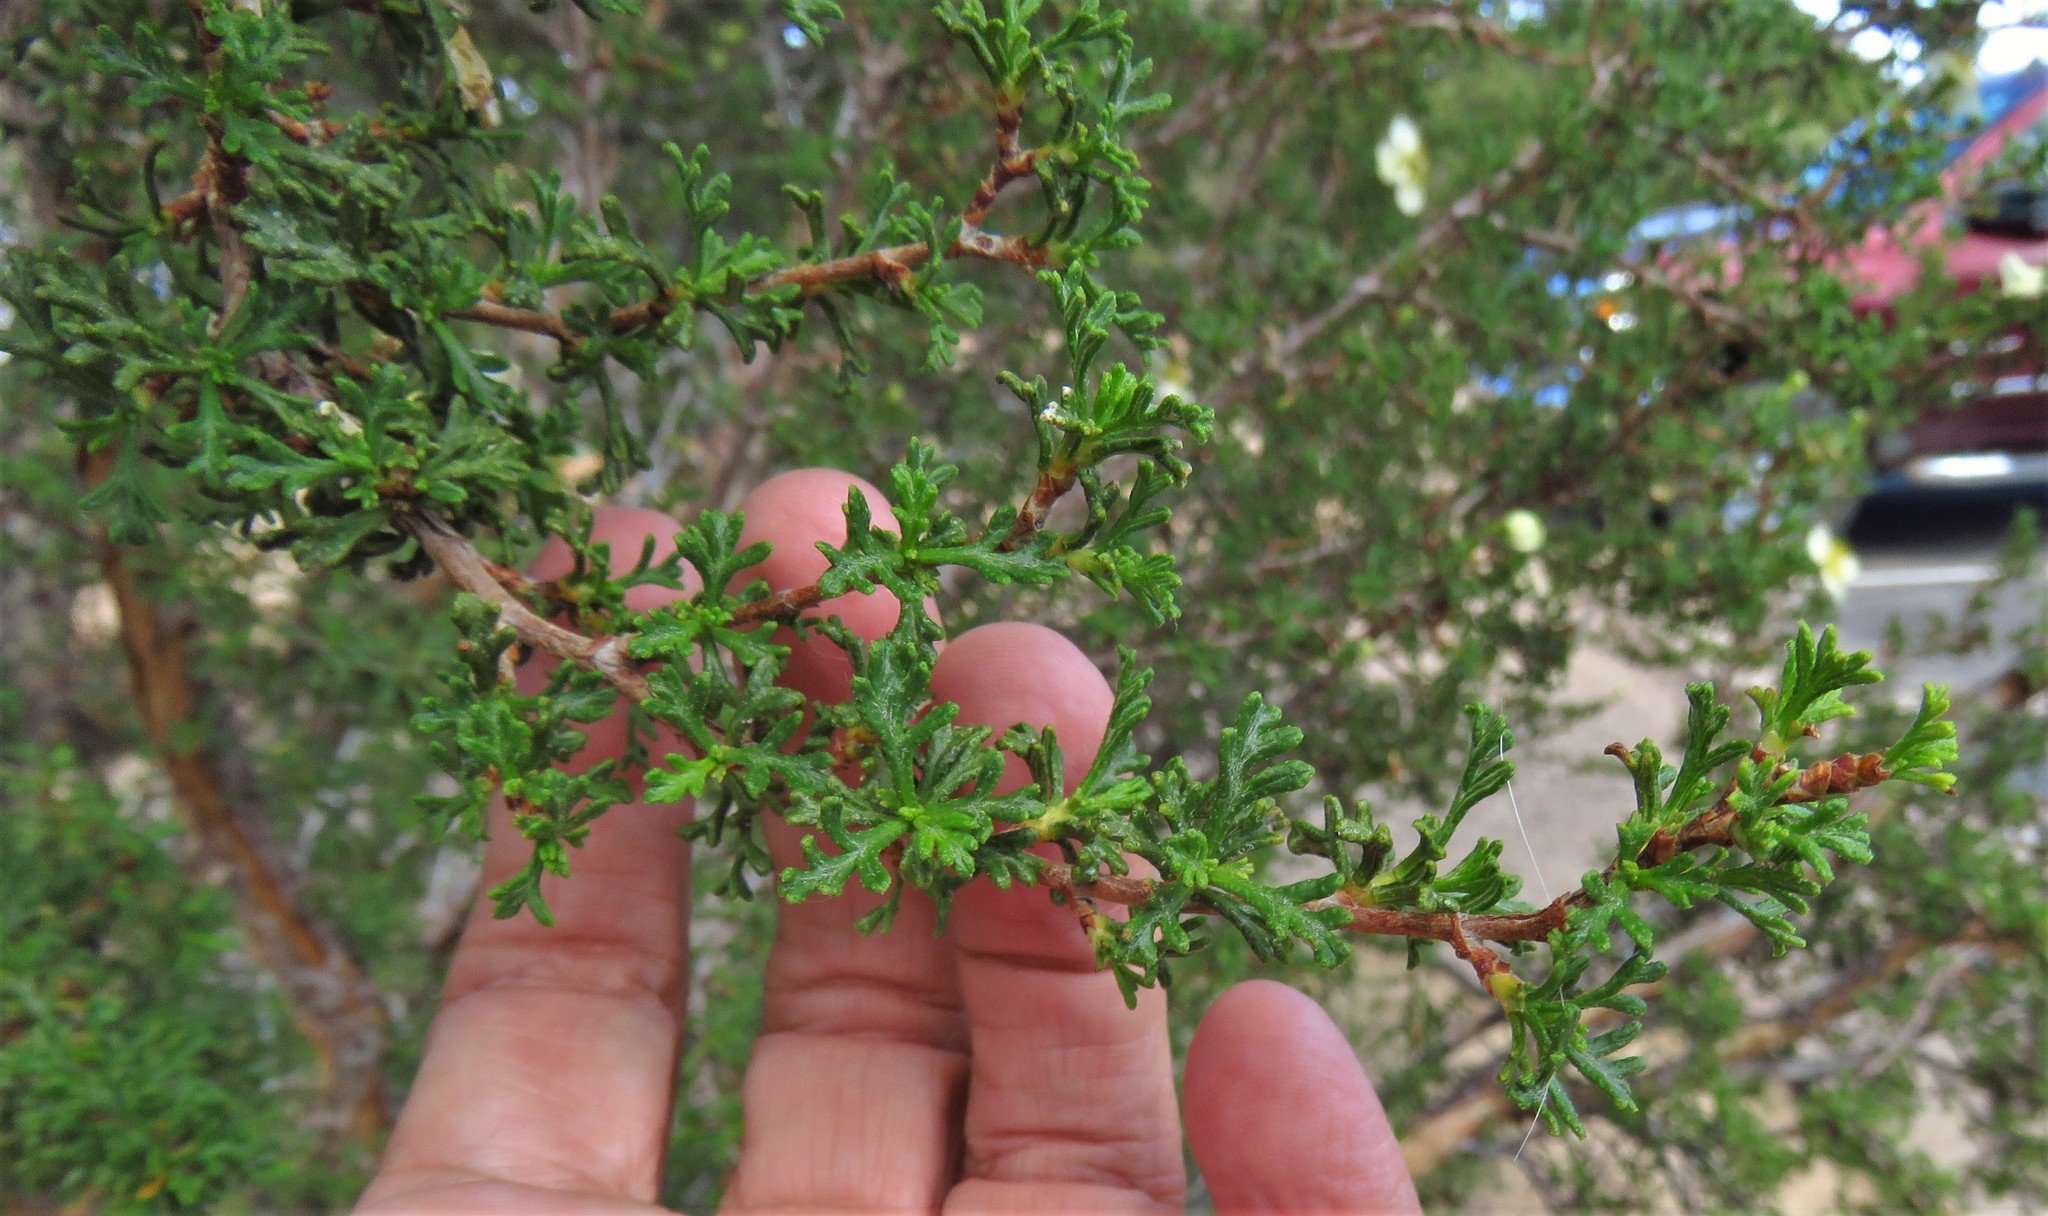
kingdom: Plantae
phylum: Tracheophyta
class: Magnoliopsida
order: Rosales
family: Rosaceae
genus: Purshia
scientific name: Purshia stansburiana
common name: Stansbury's cliffrose
